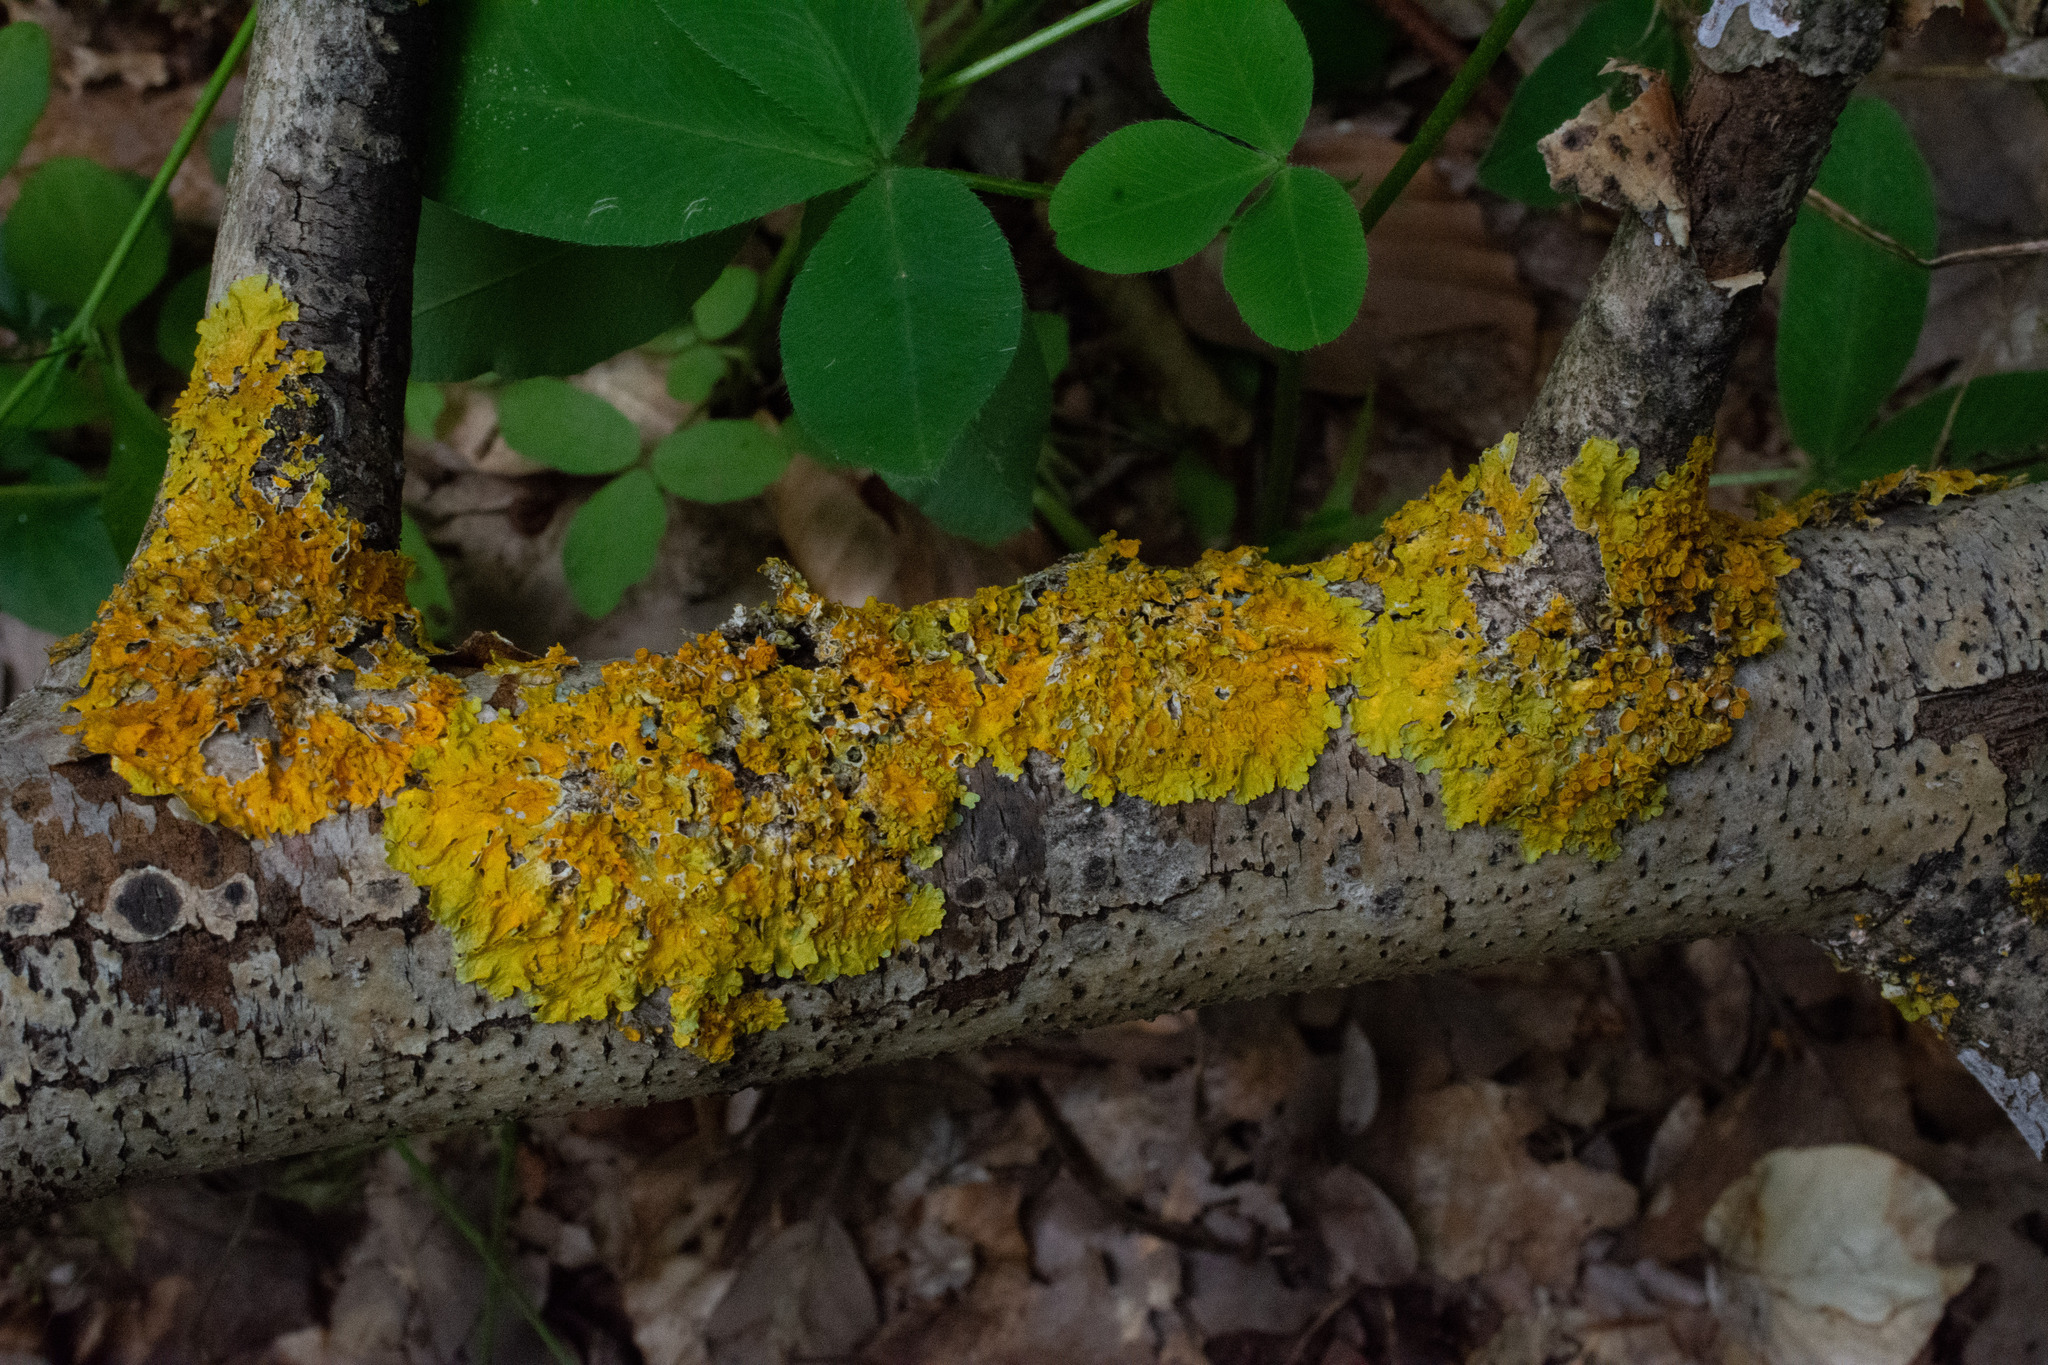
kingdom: Fungi
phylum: Ascomycota
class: Lecanoromycetes
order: Teloschistales
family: Teloschistaceae
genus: Xanthoria
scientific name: Xanthoria parietina
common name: Common orange lichen
